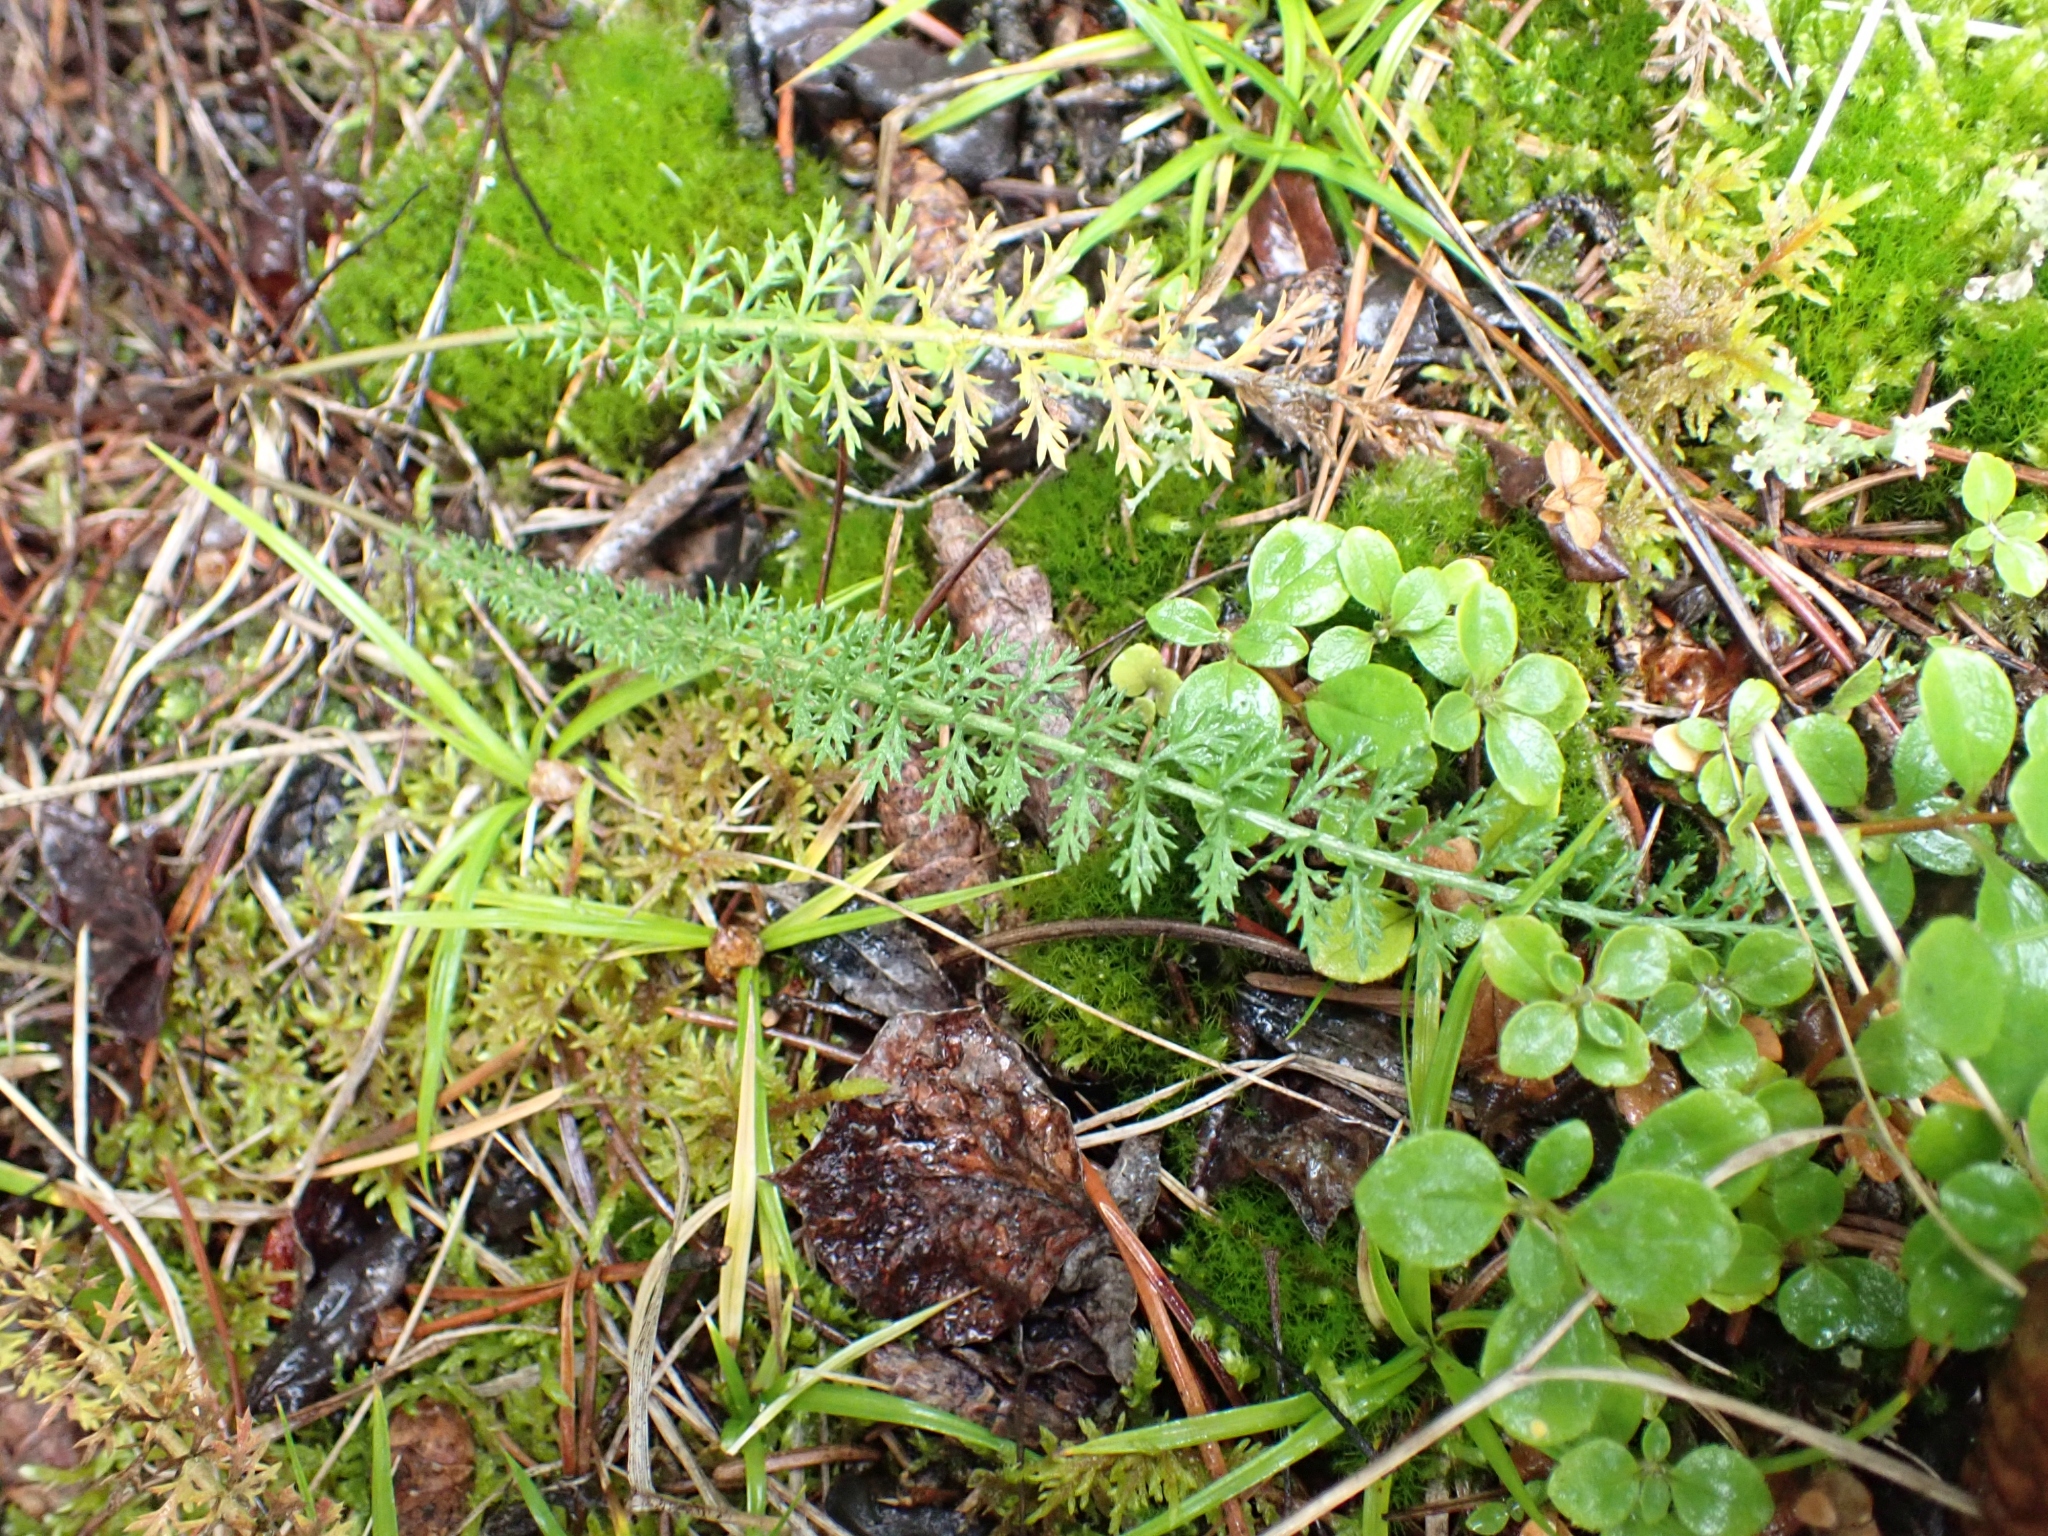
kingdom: Plantae
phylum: Tracheophyta
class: Magnoliopsida
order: Asterales
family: Asteraceae
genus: Achillea
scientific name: Achillea millefolium
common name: Yarrow
